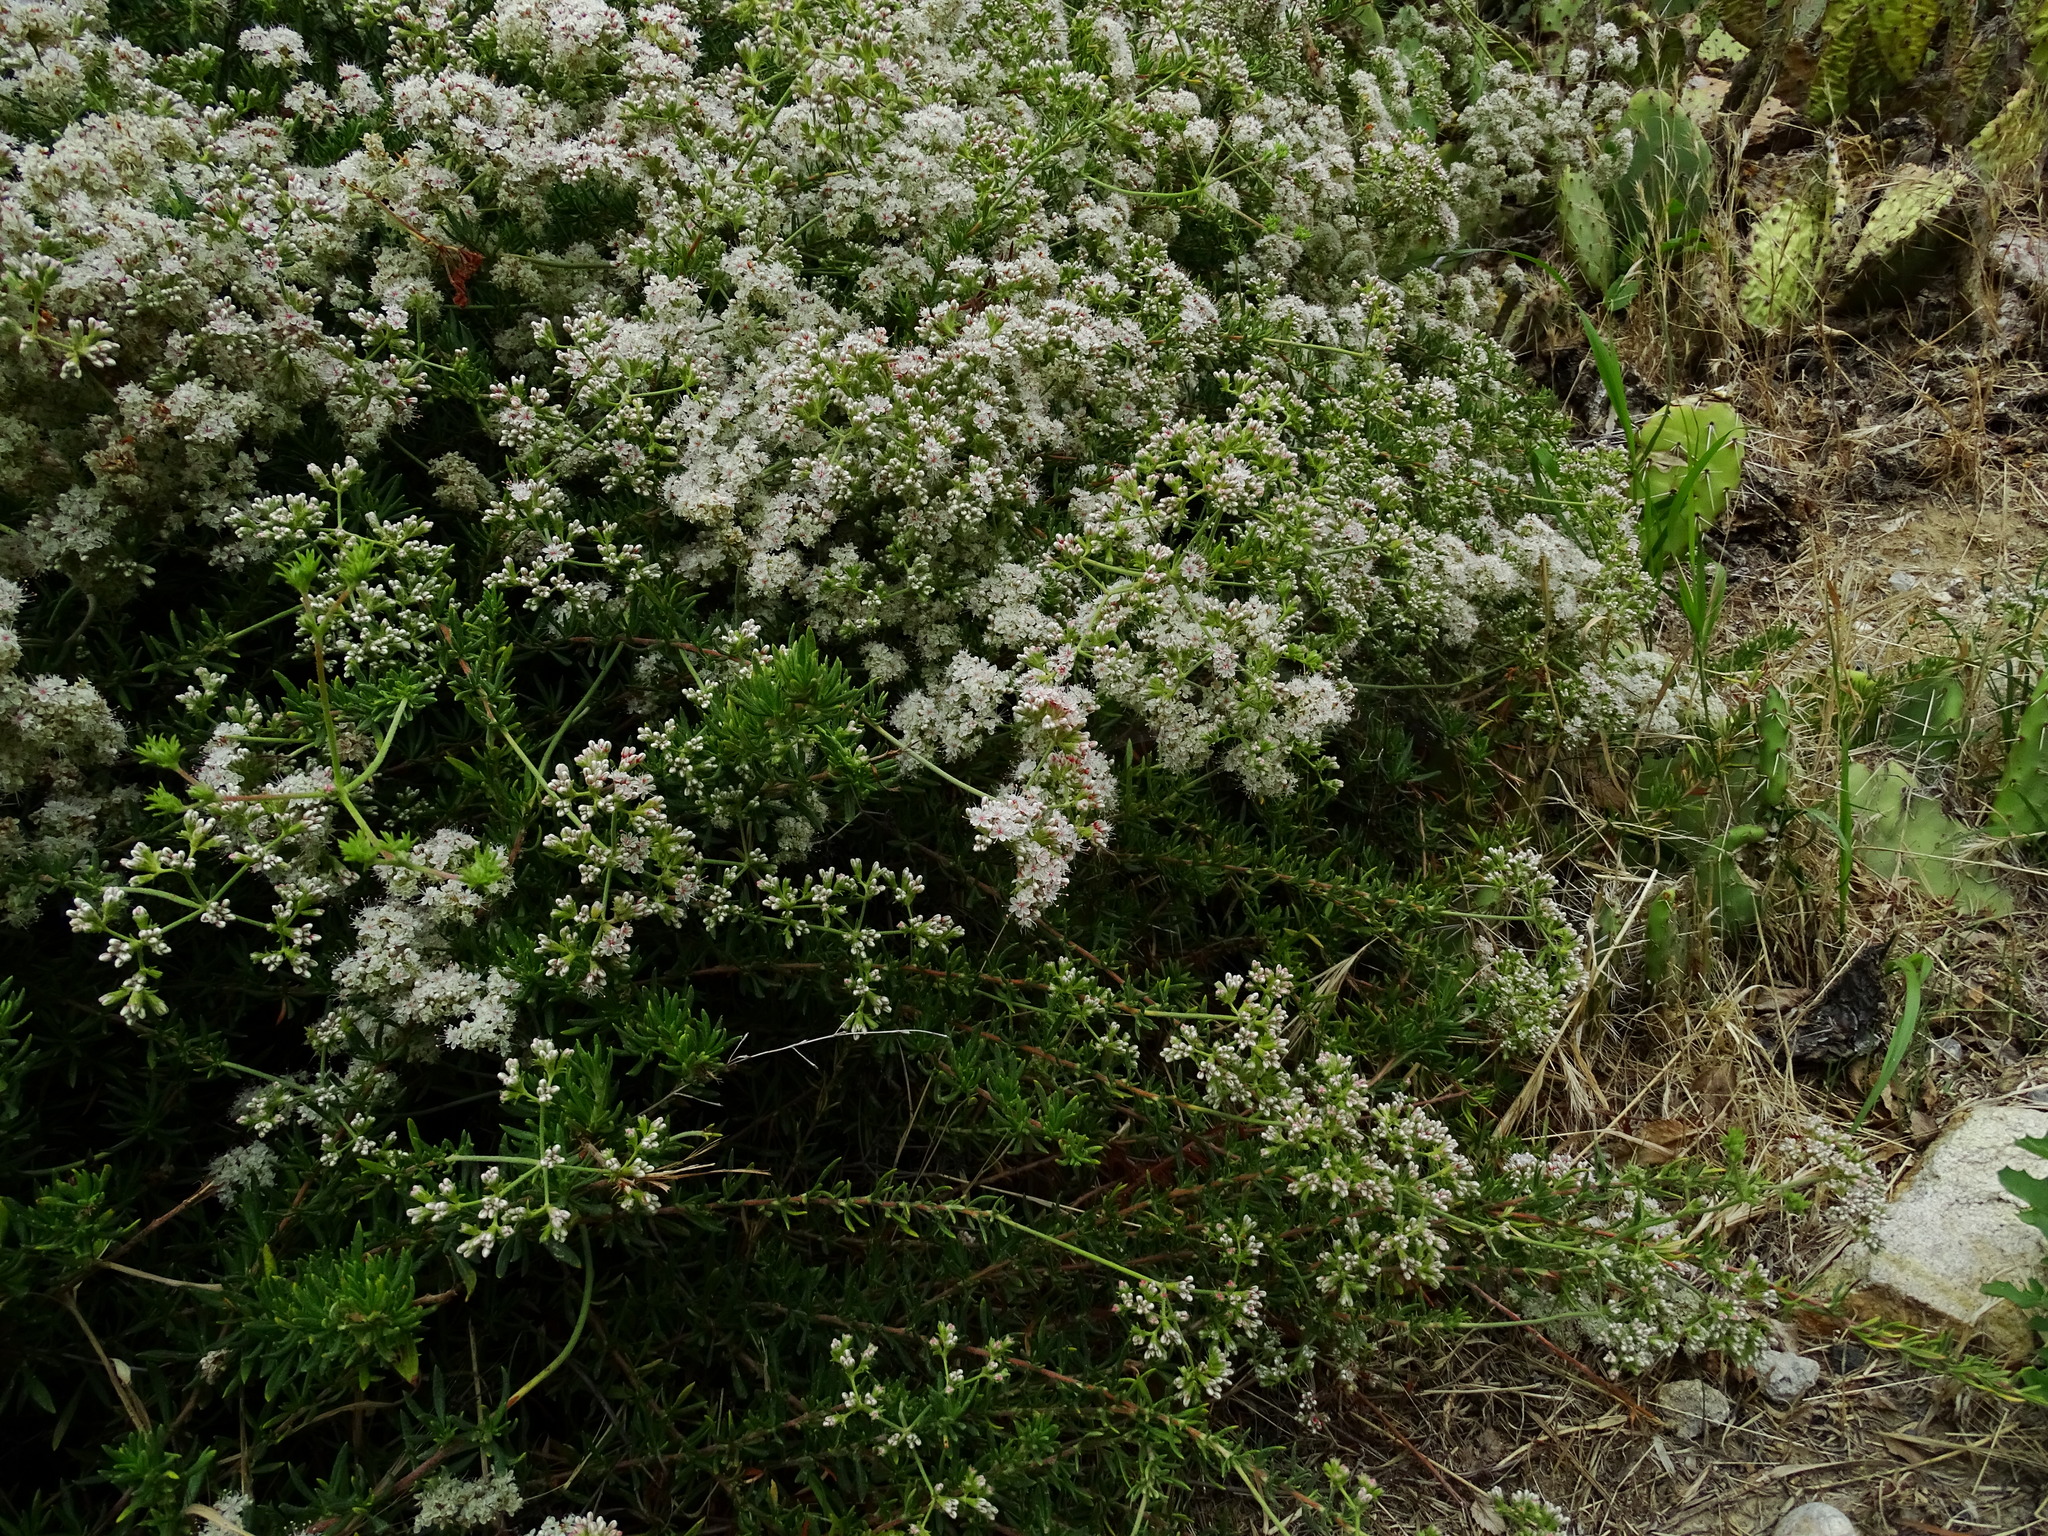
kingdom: Plantae
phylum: Tracheophyta
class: Magnoliopsida
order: Caryophyllales
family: Polygonaceae
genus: Eriogonum
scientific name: Eriogonum fasciculatum
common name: California wild buckwheat
